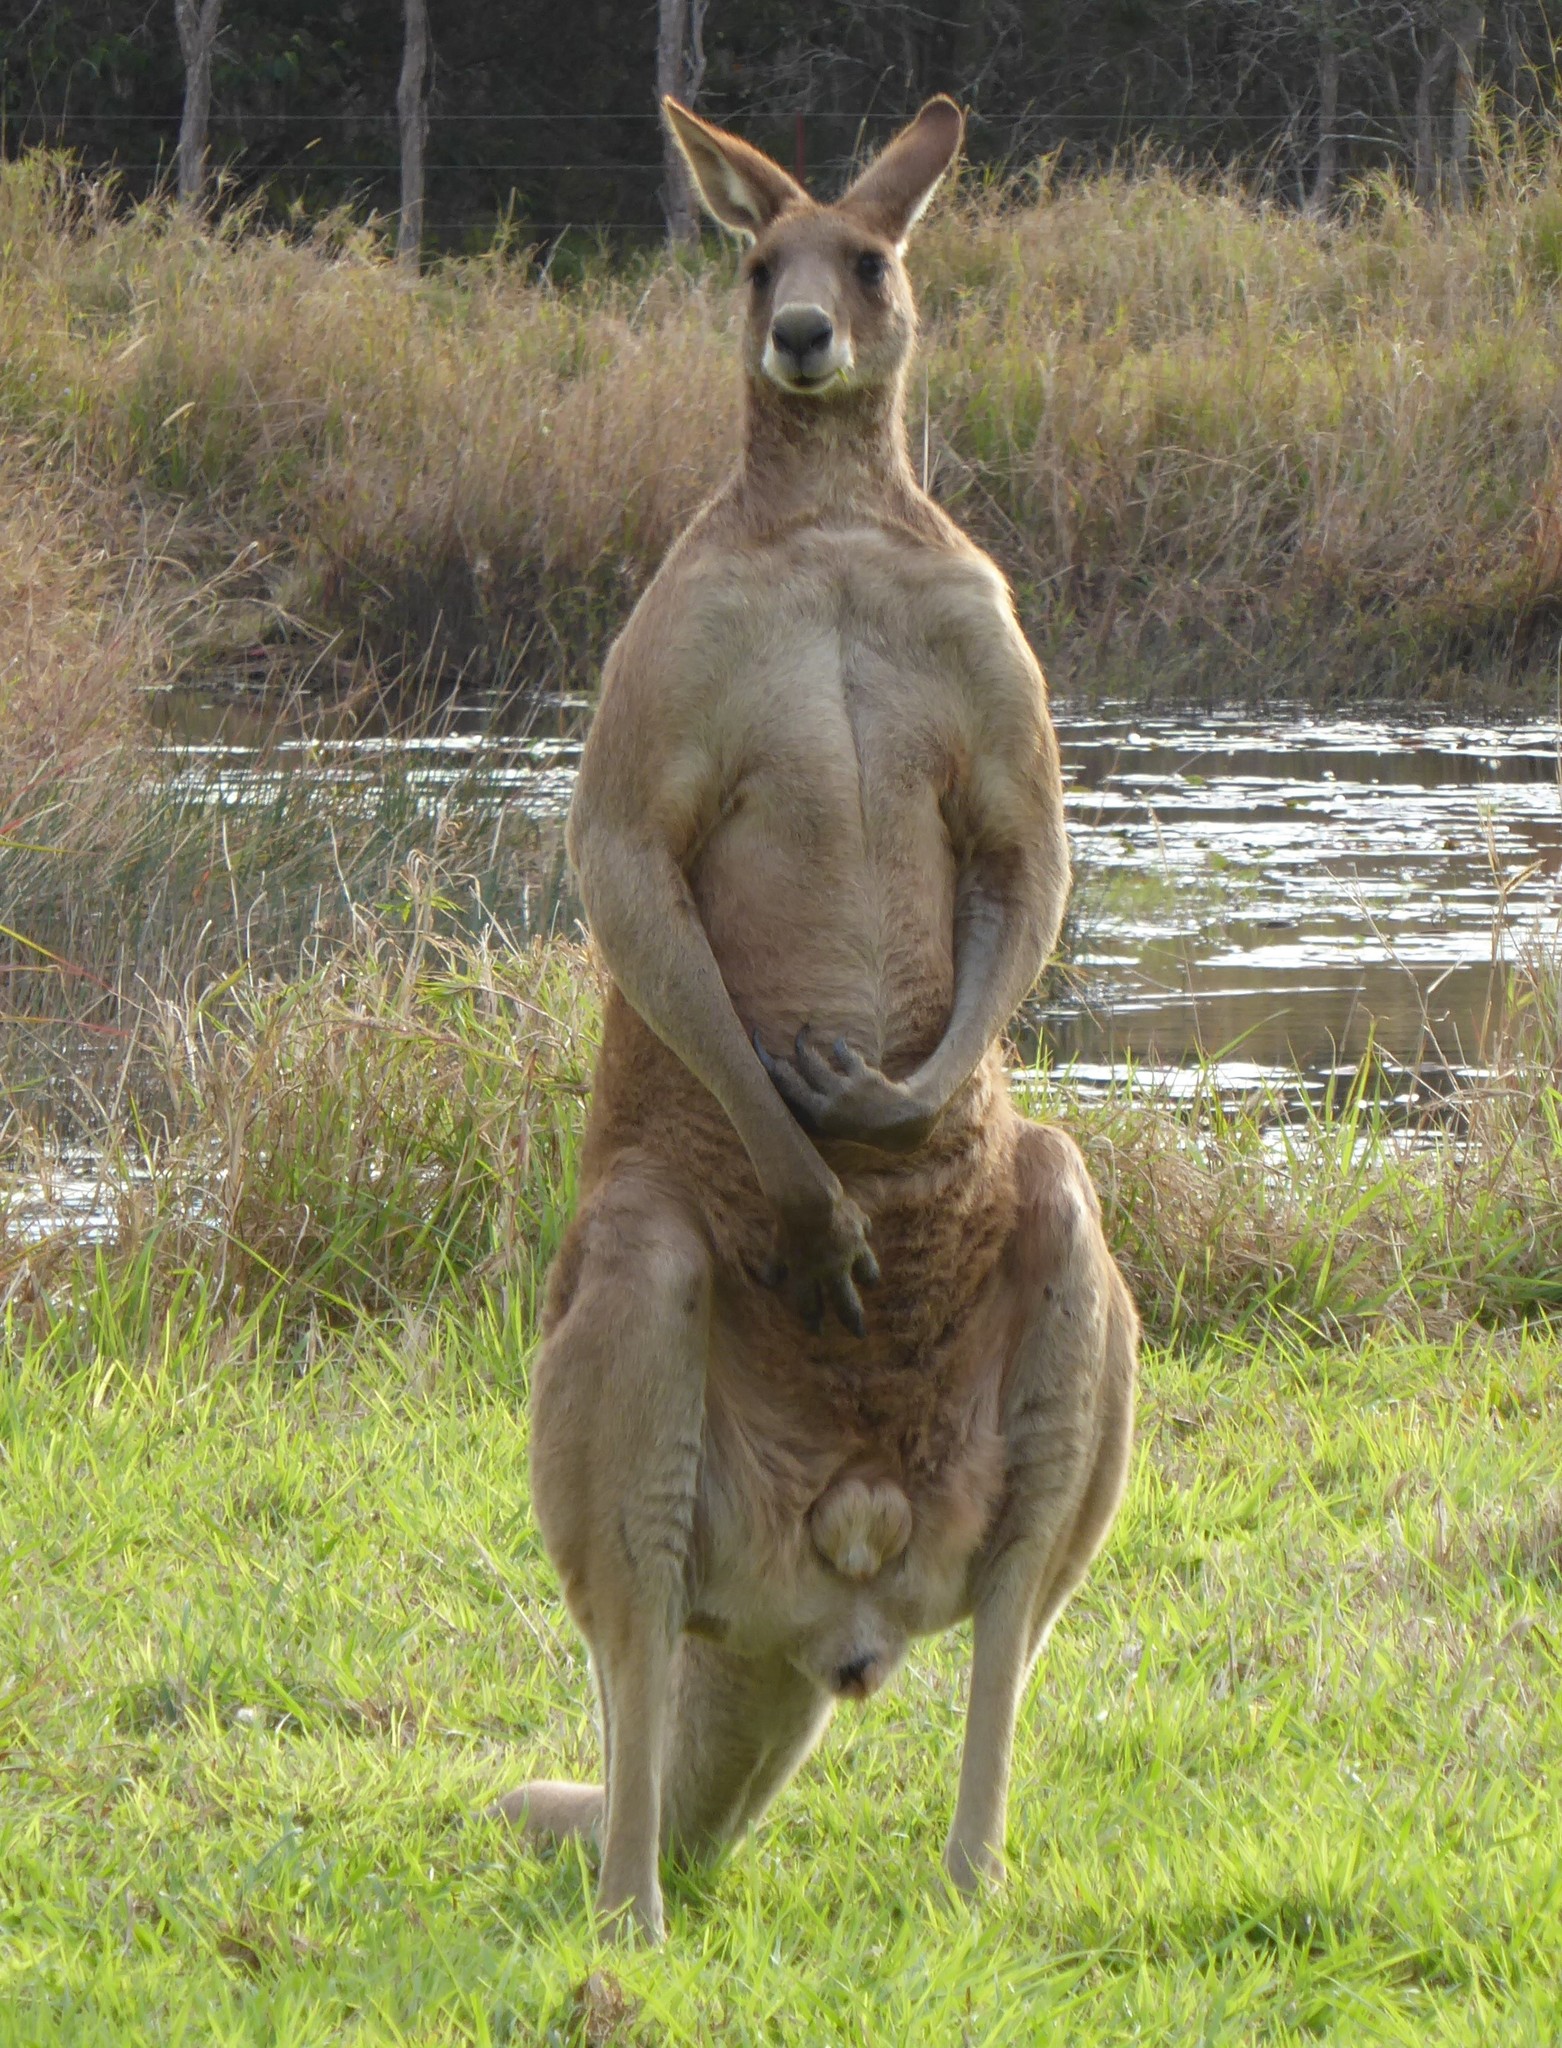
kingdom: Animalia
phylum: Chordata
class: Mammalia
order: Diprotodontia
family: Macropodidae
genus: Macropus
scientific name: Macropus giganteus
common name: Eastern grey kangaroo
